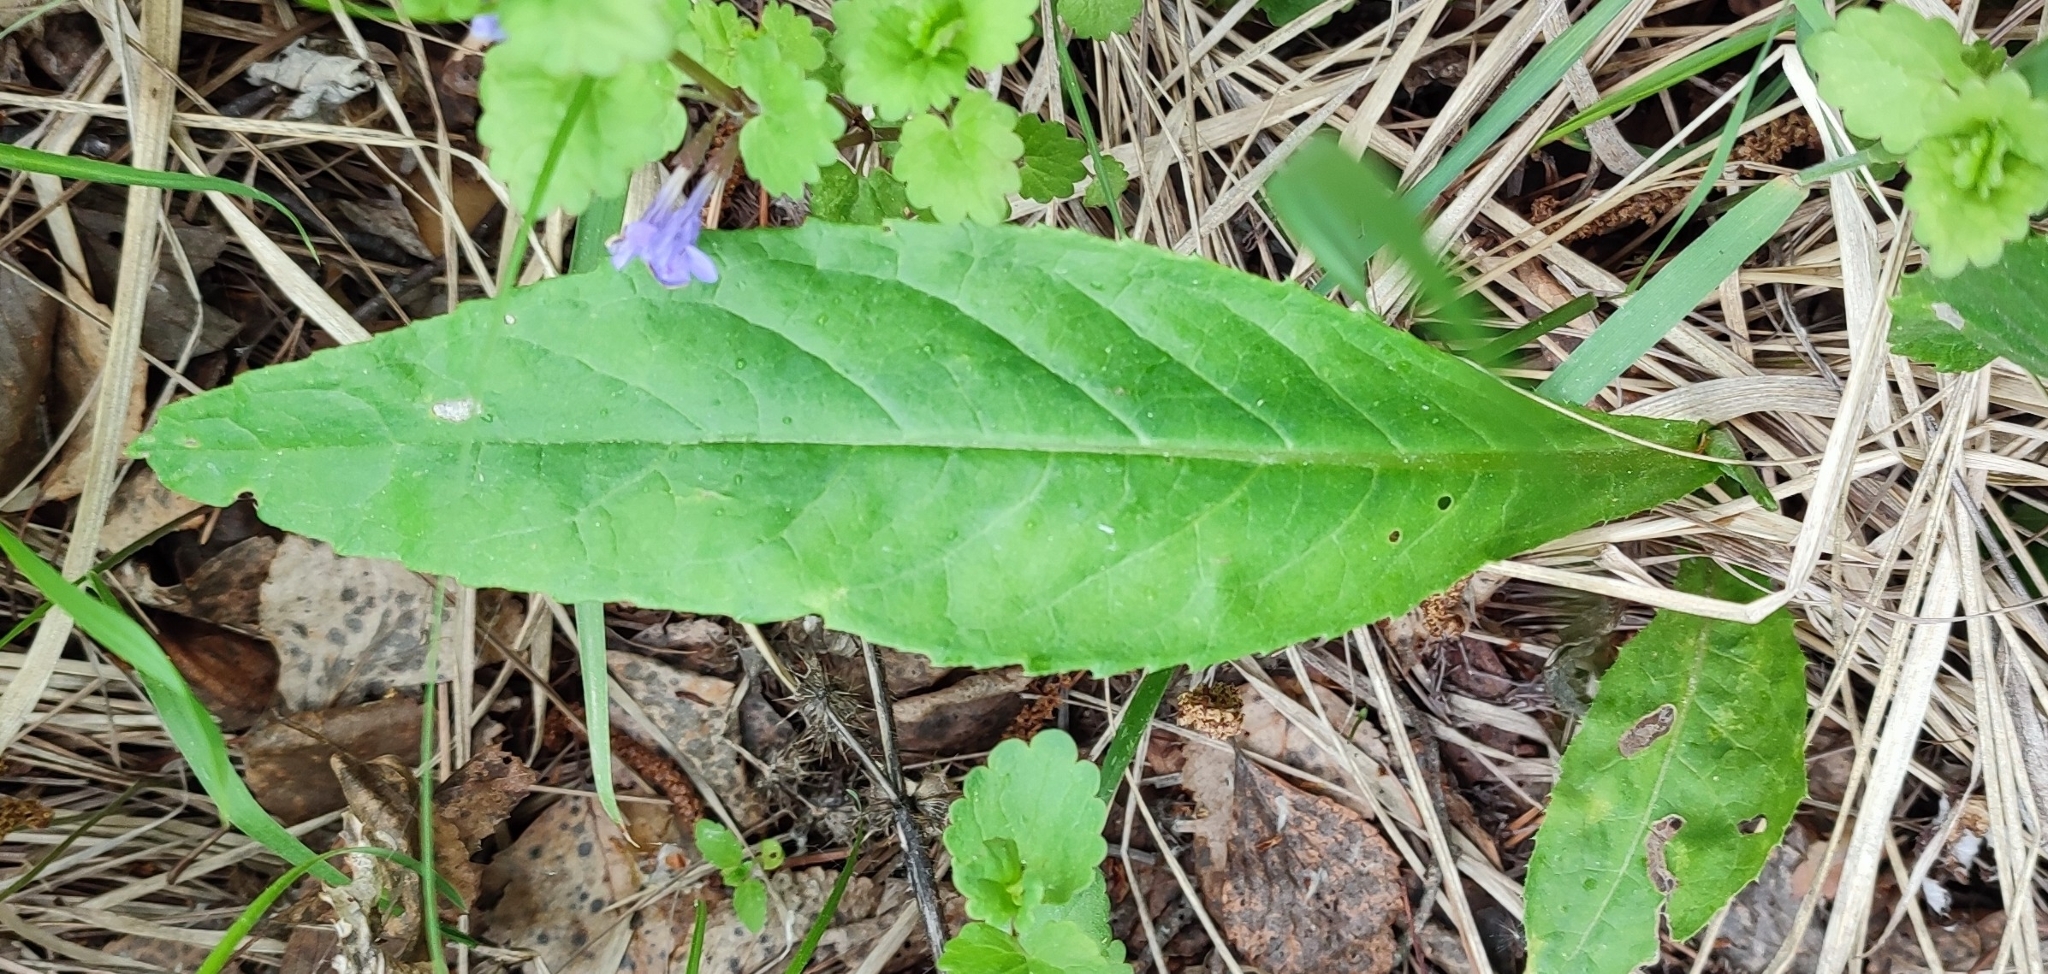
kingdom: Plantae
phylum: Tracheophyta
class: Magnoliopsida
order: Asterales
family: Asteraceae
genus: Cirsium
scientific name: Cirsium heterophyllum
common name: Melancholy thistle
